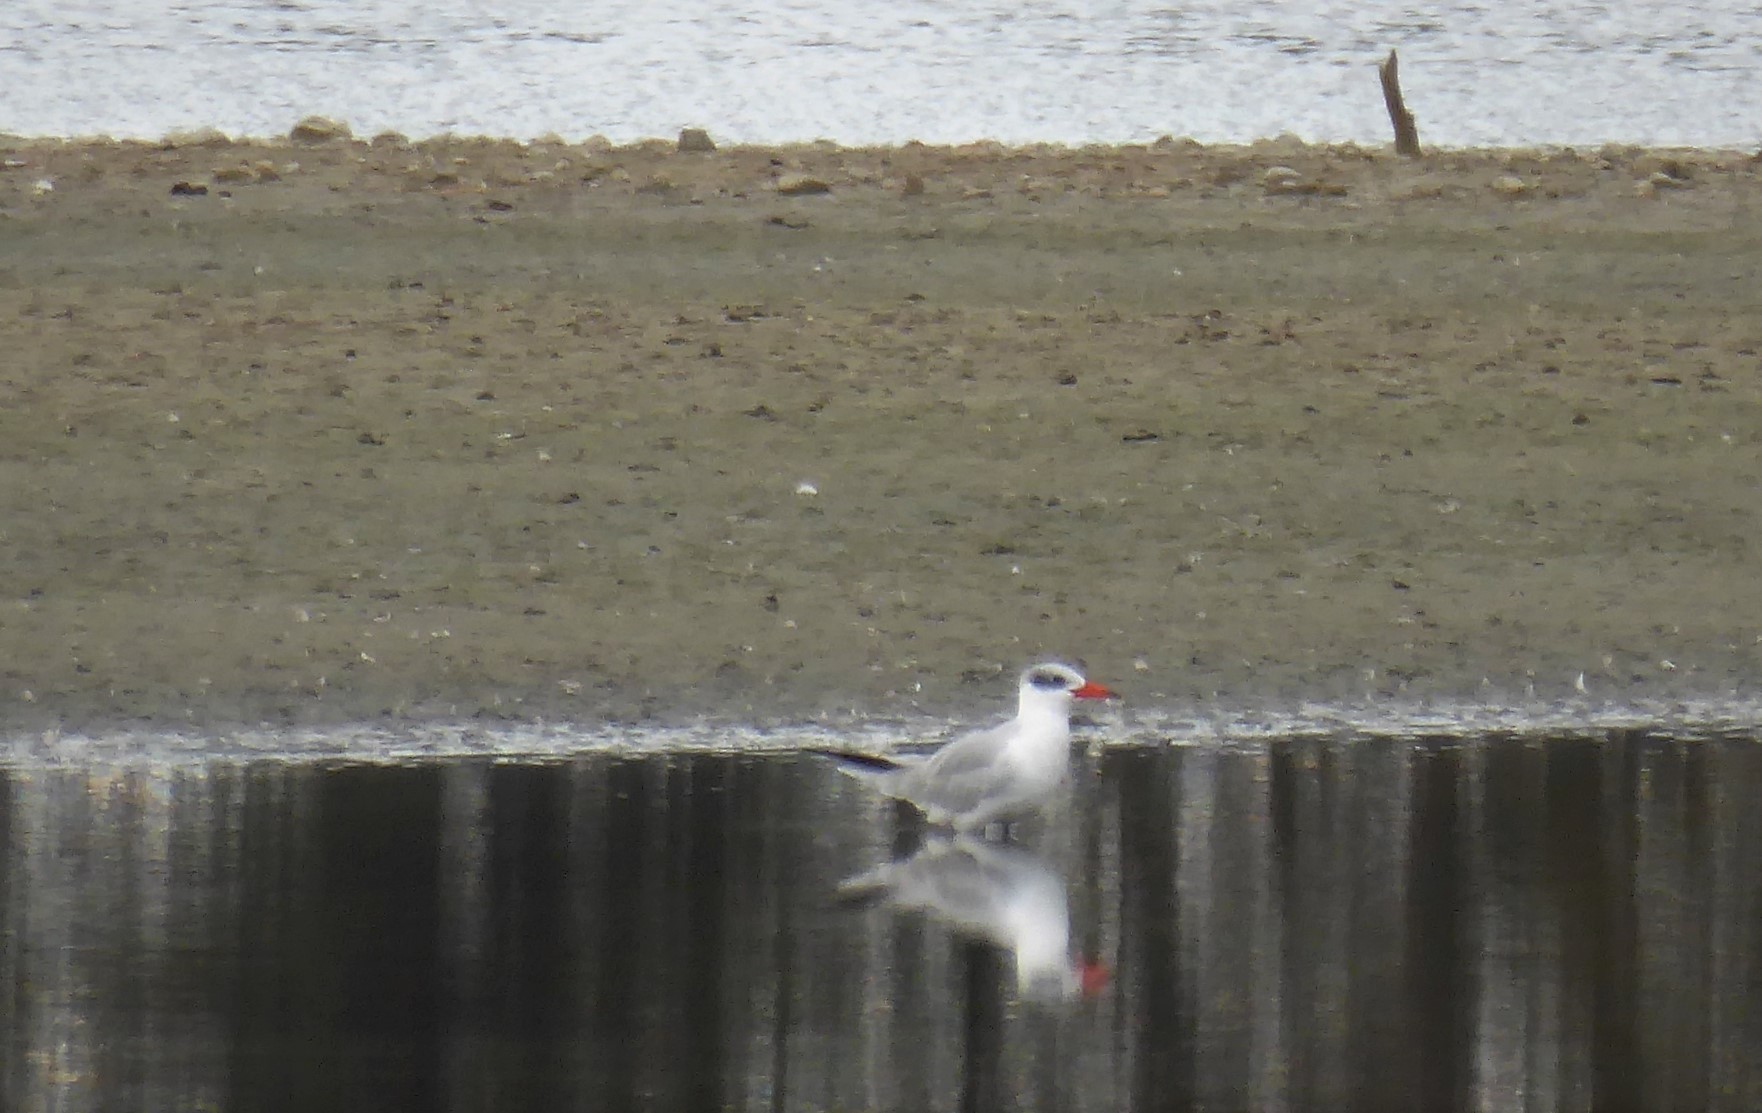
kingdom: Animalia
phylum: Chordata
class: Aves
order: Charadriiformes
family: Laridae
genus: Hydroprogne
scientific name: Hydroprogne caspia
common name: Caspian tern
